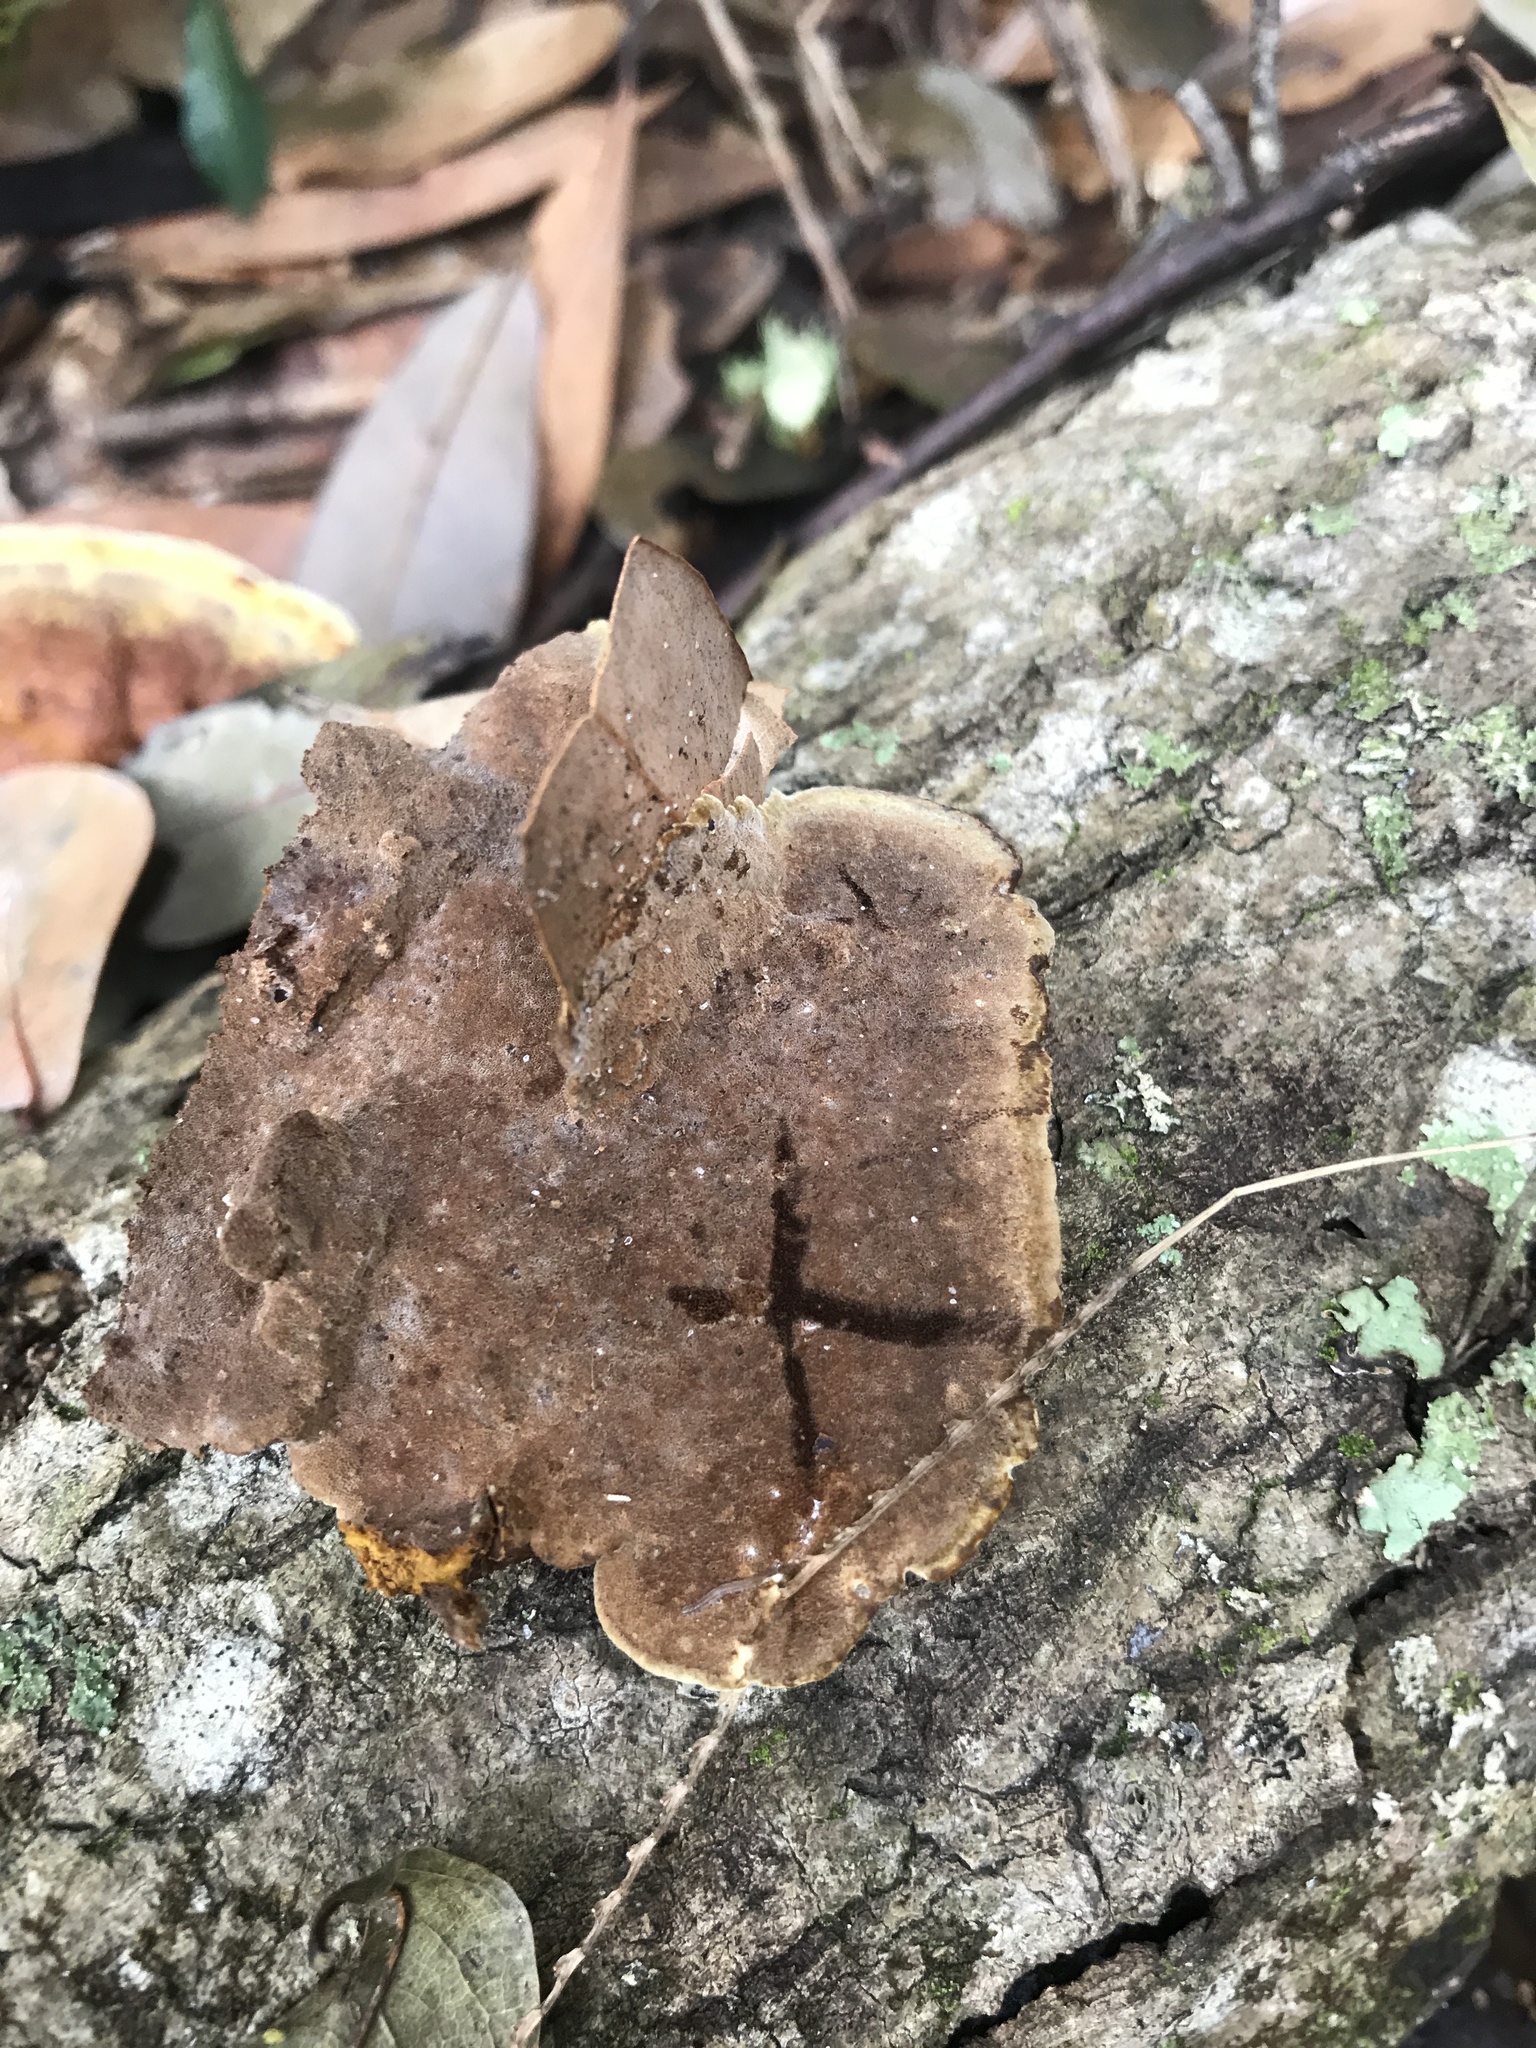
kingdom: Fungi
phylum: Basidiomycota
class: Agaricomycetes
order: Hymenochaetales
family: Hymenochaetaceae
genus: Phellinus
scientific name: Phellinus gilvus
